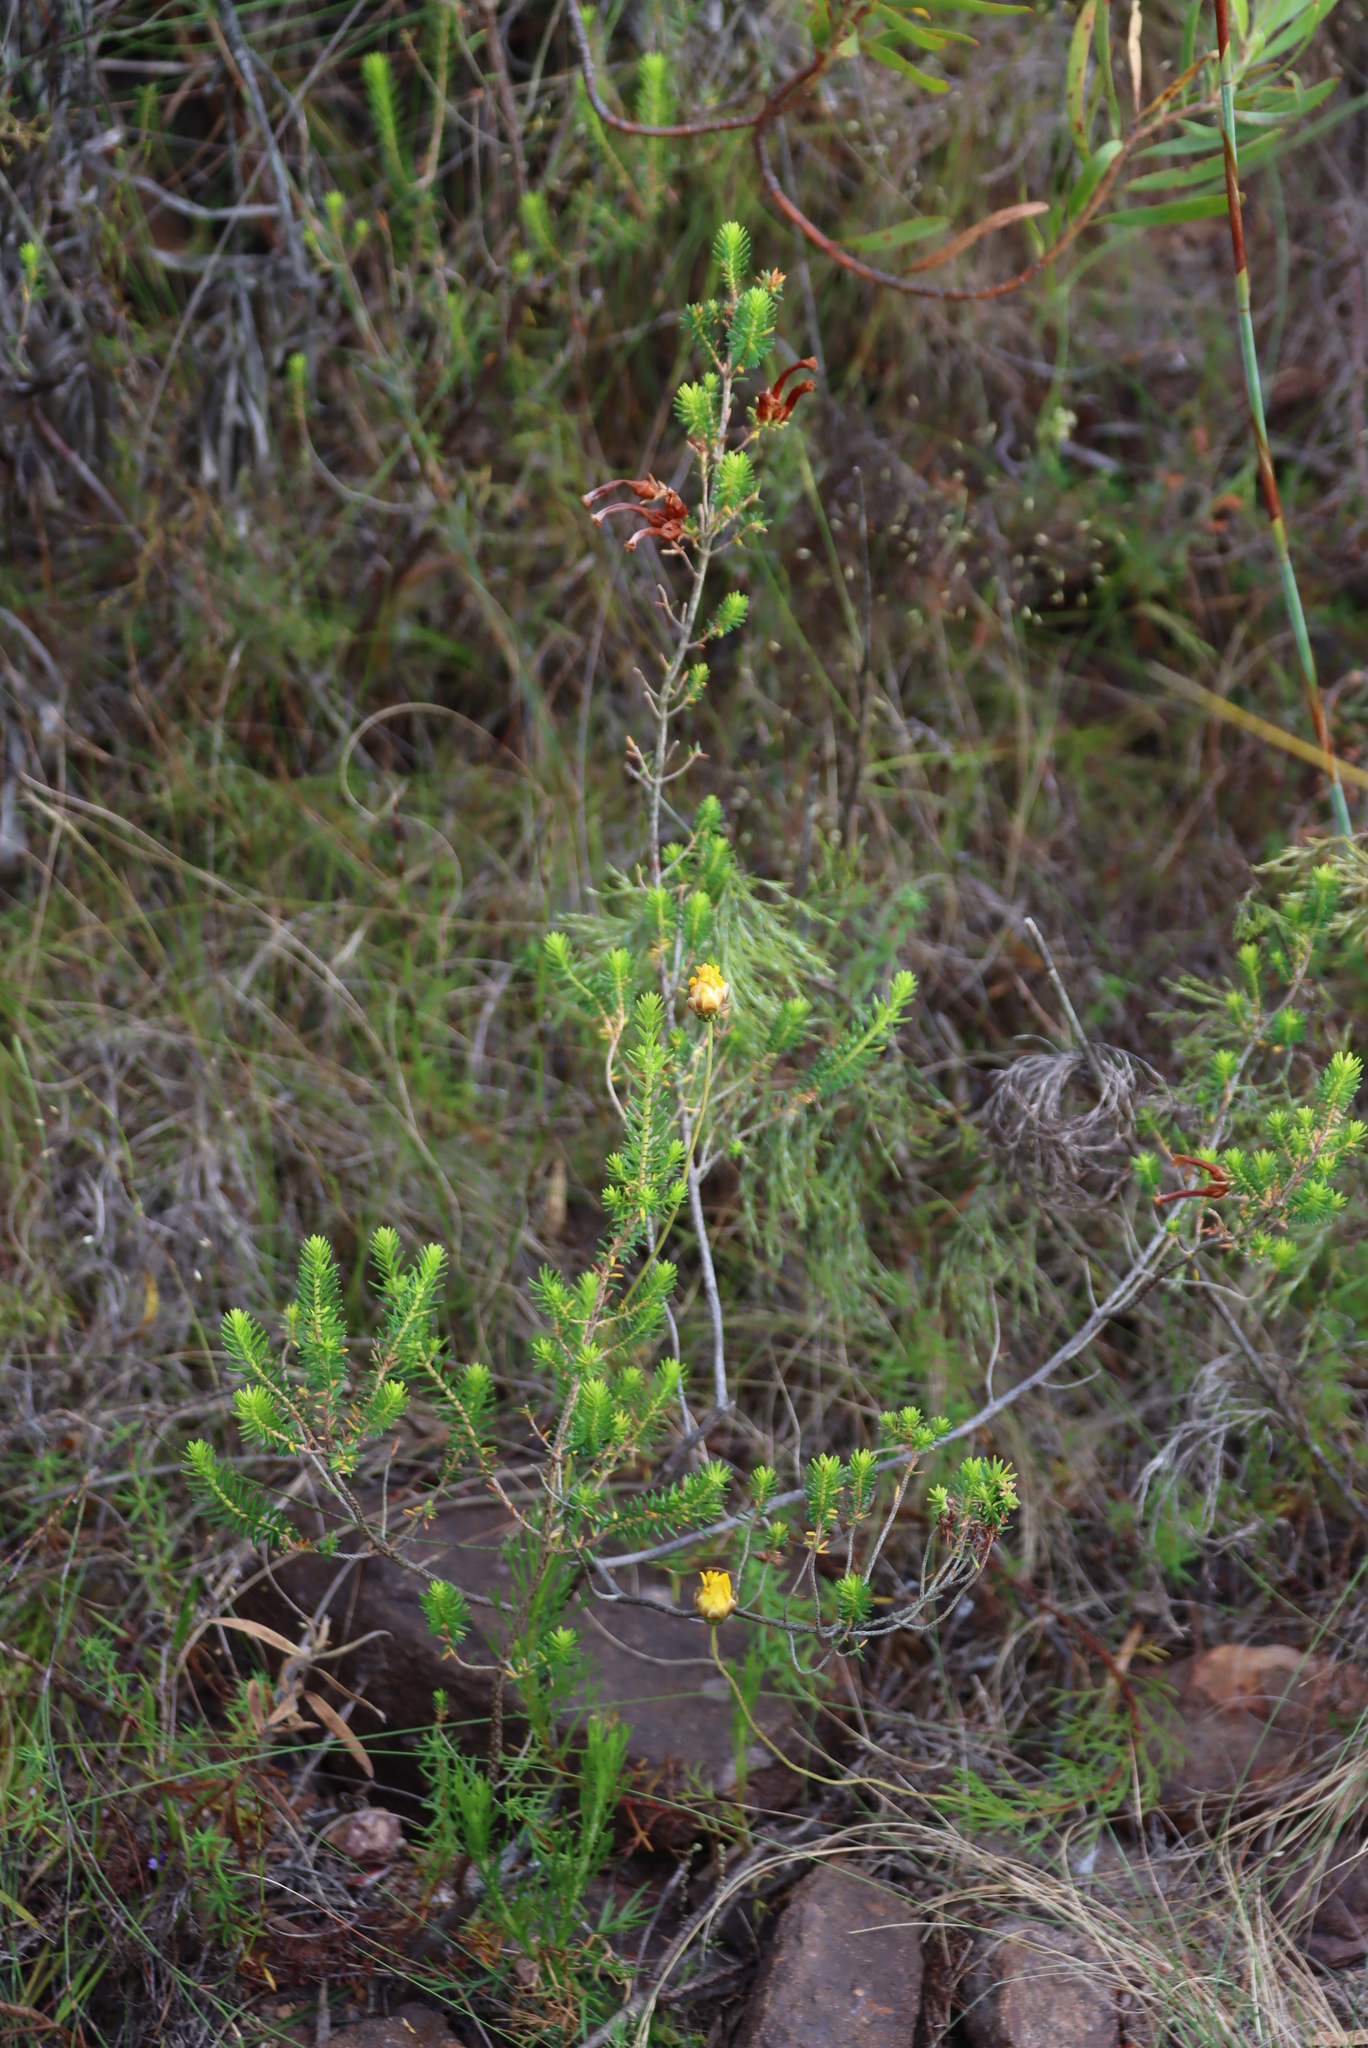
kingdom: Plantae
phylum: Tracheophyta
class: Magnoliopsida
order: Ericales
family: Ericaceae
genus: Erica
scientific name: Erica discolor
